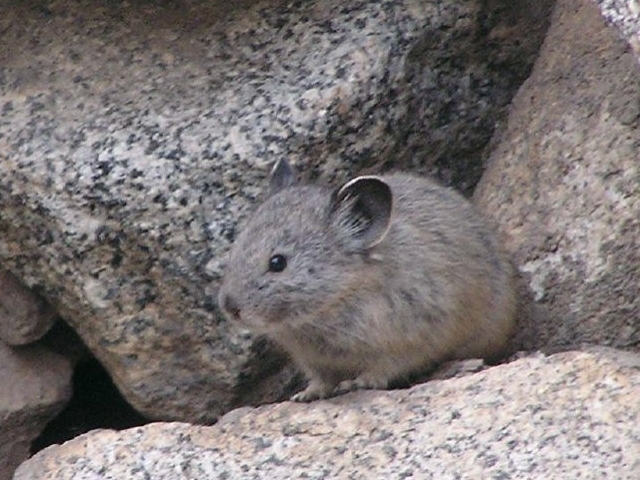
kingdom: Animalia
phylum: Chordata
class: Mammalia
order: Lagomorpha
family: Ochotonidae
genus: Ochotona
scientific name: Ochotona princeps
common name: American pika
